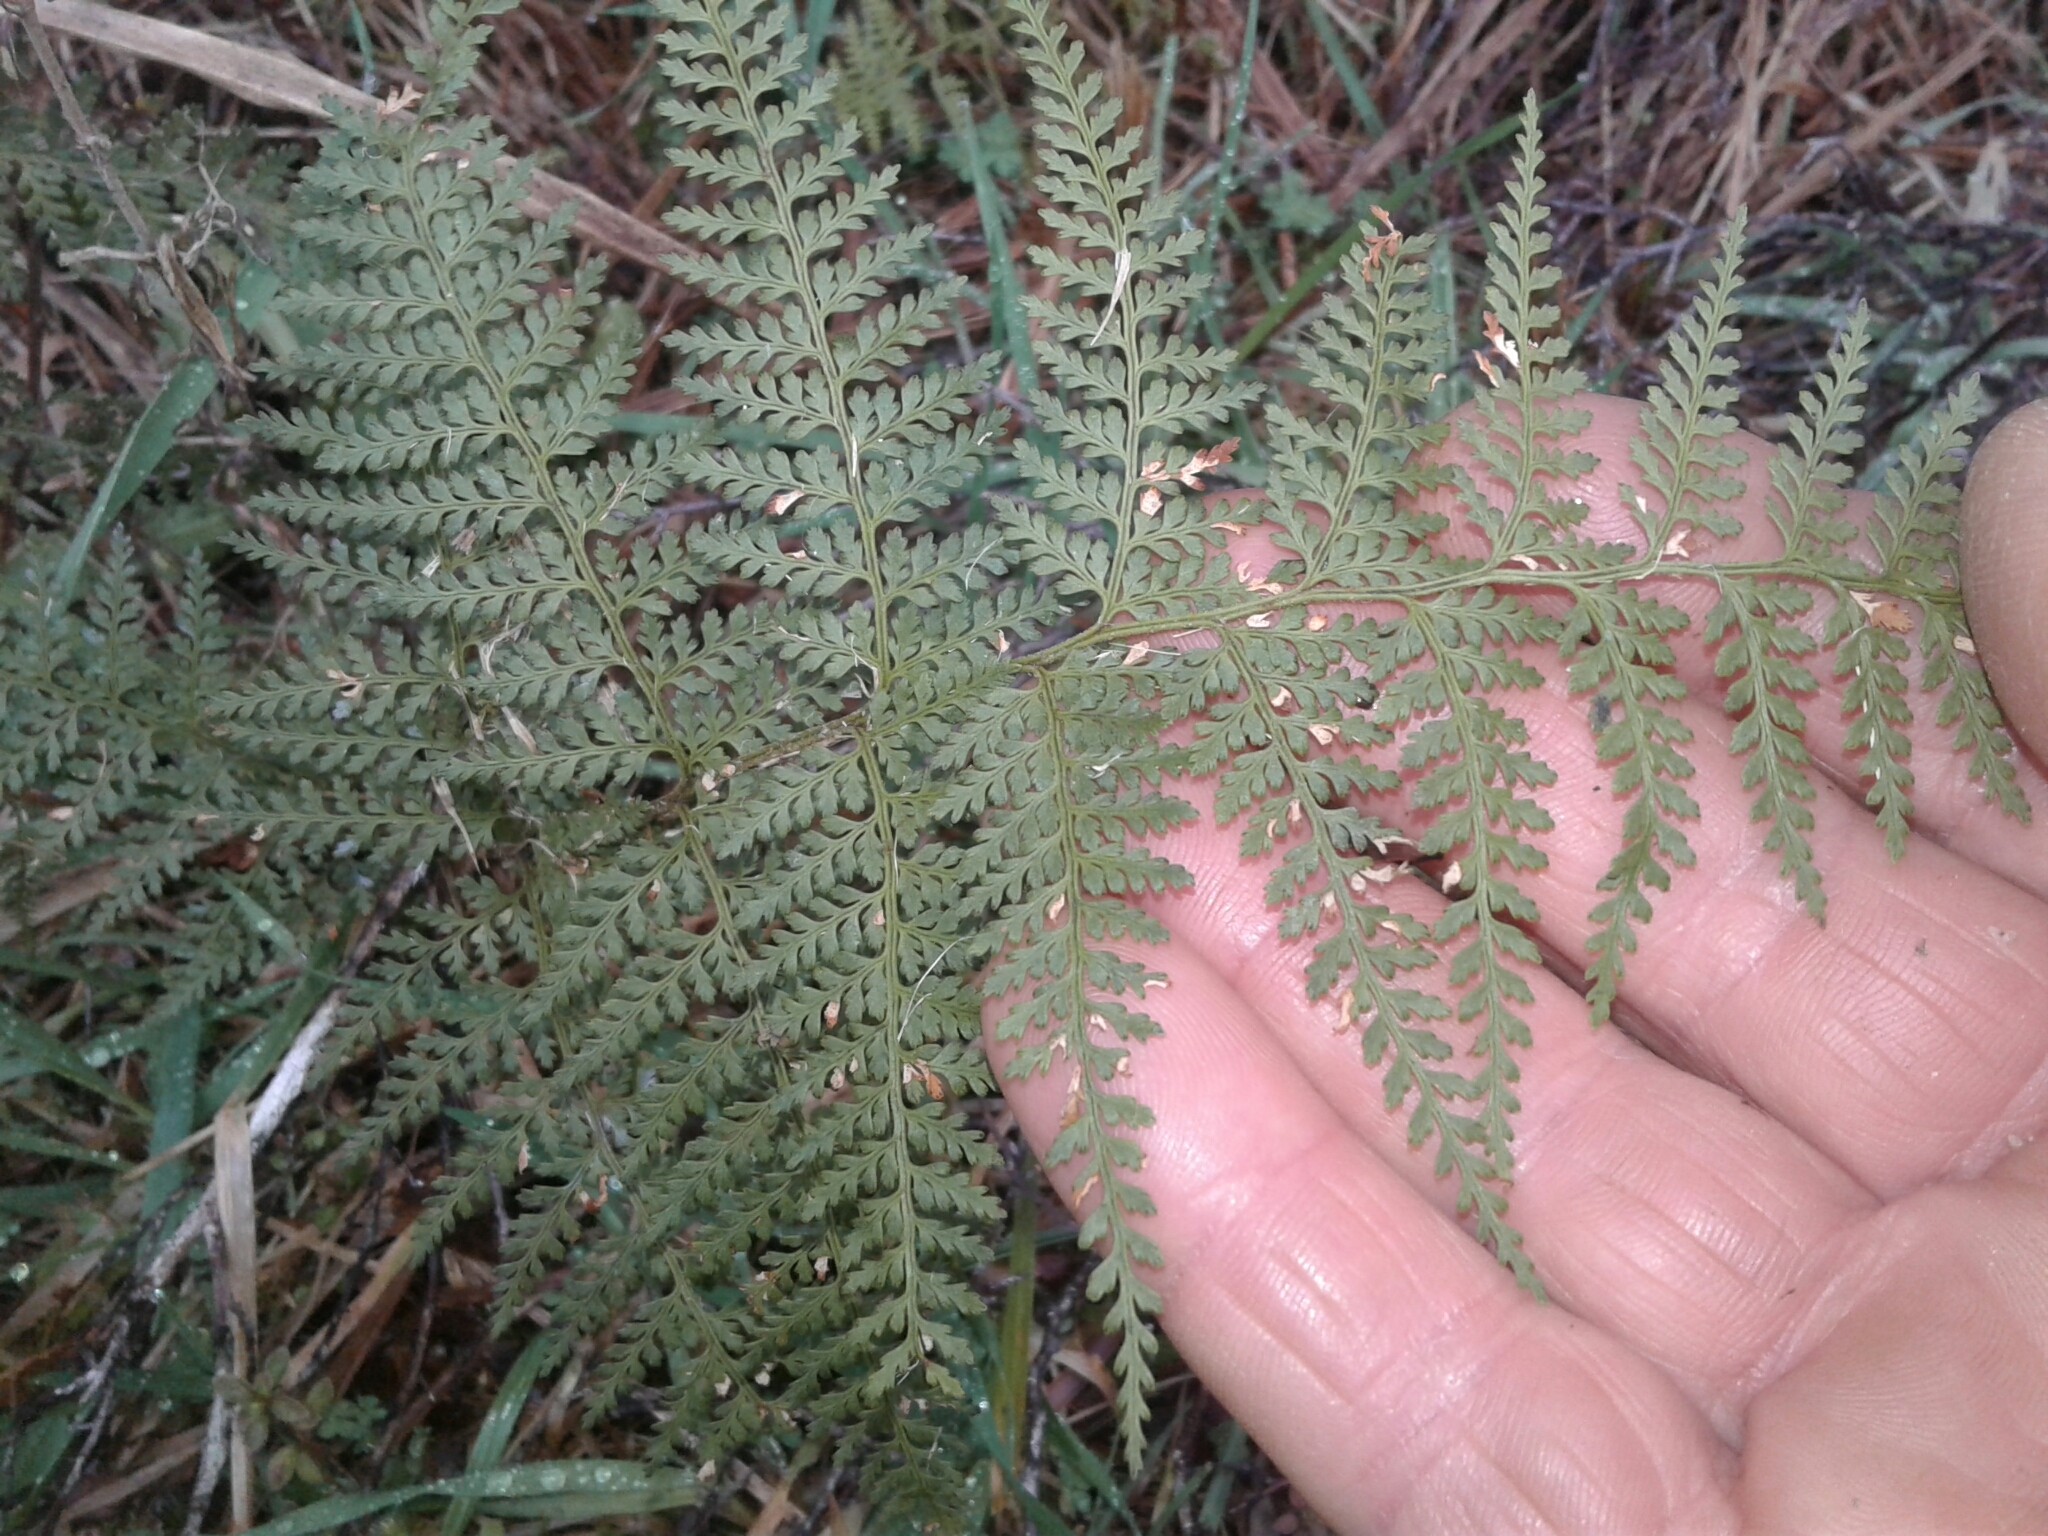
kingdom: Plantae
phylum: Tracheophyta
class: Polypodiopsida
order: Polypodiales
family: Dennstaedtiaceae
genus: Paesia
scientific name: Paesia scaberula
